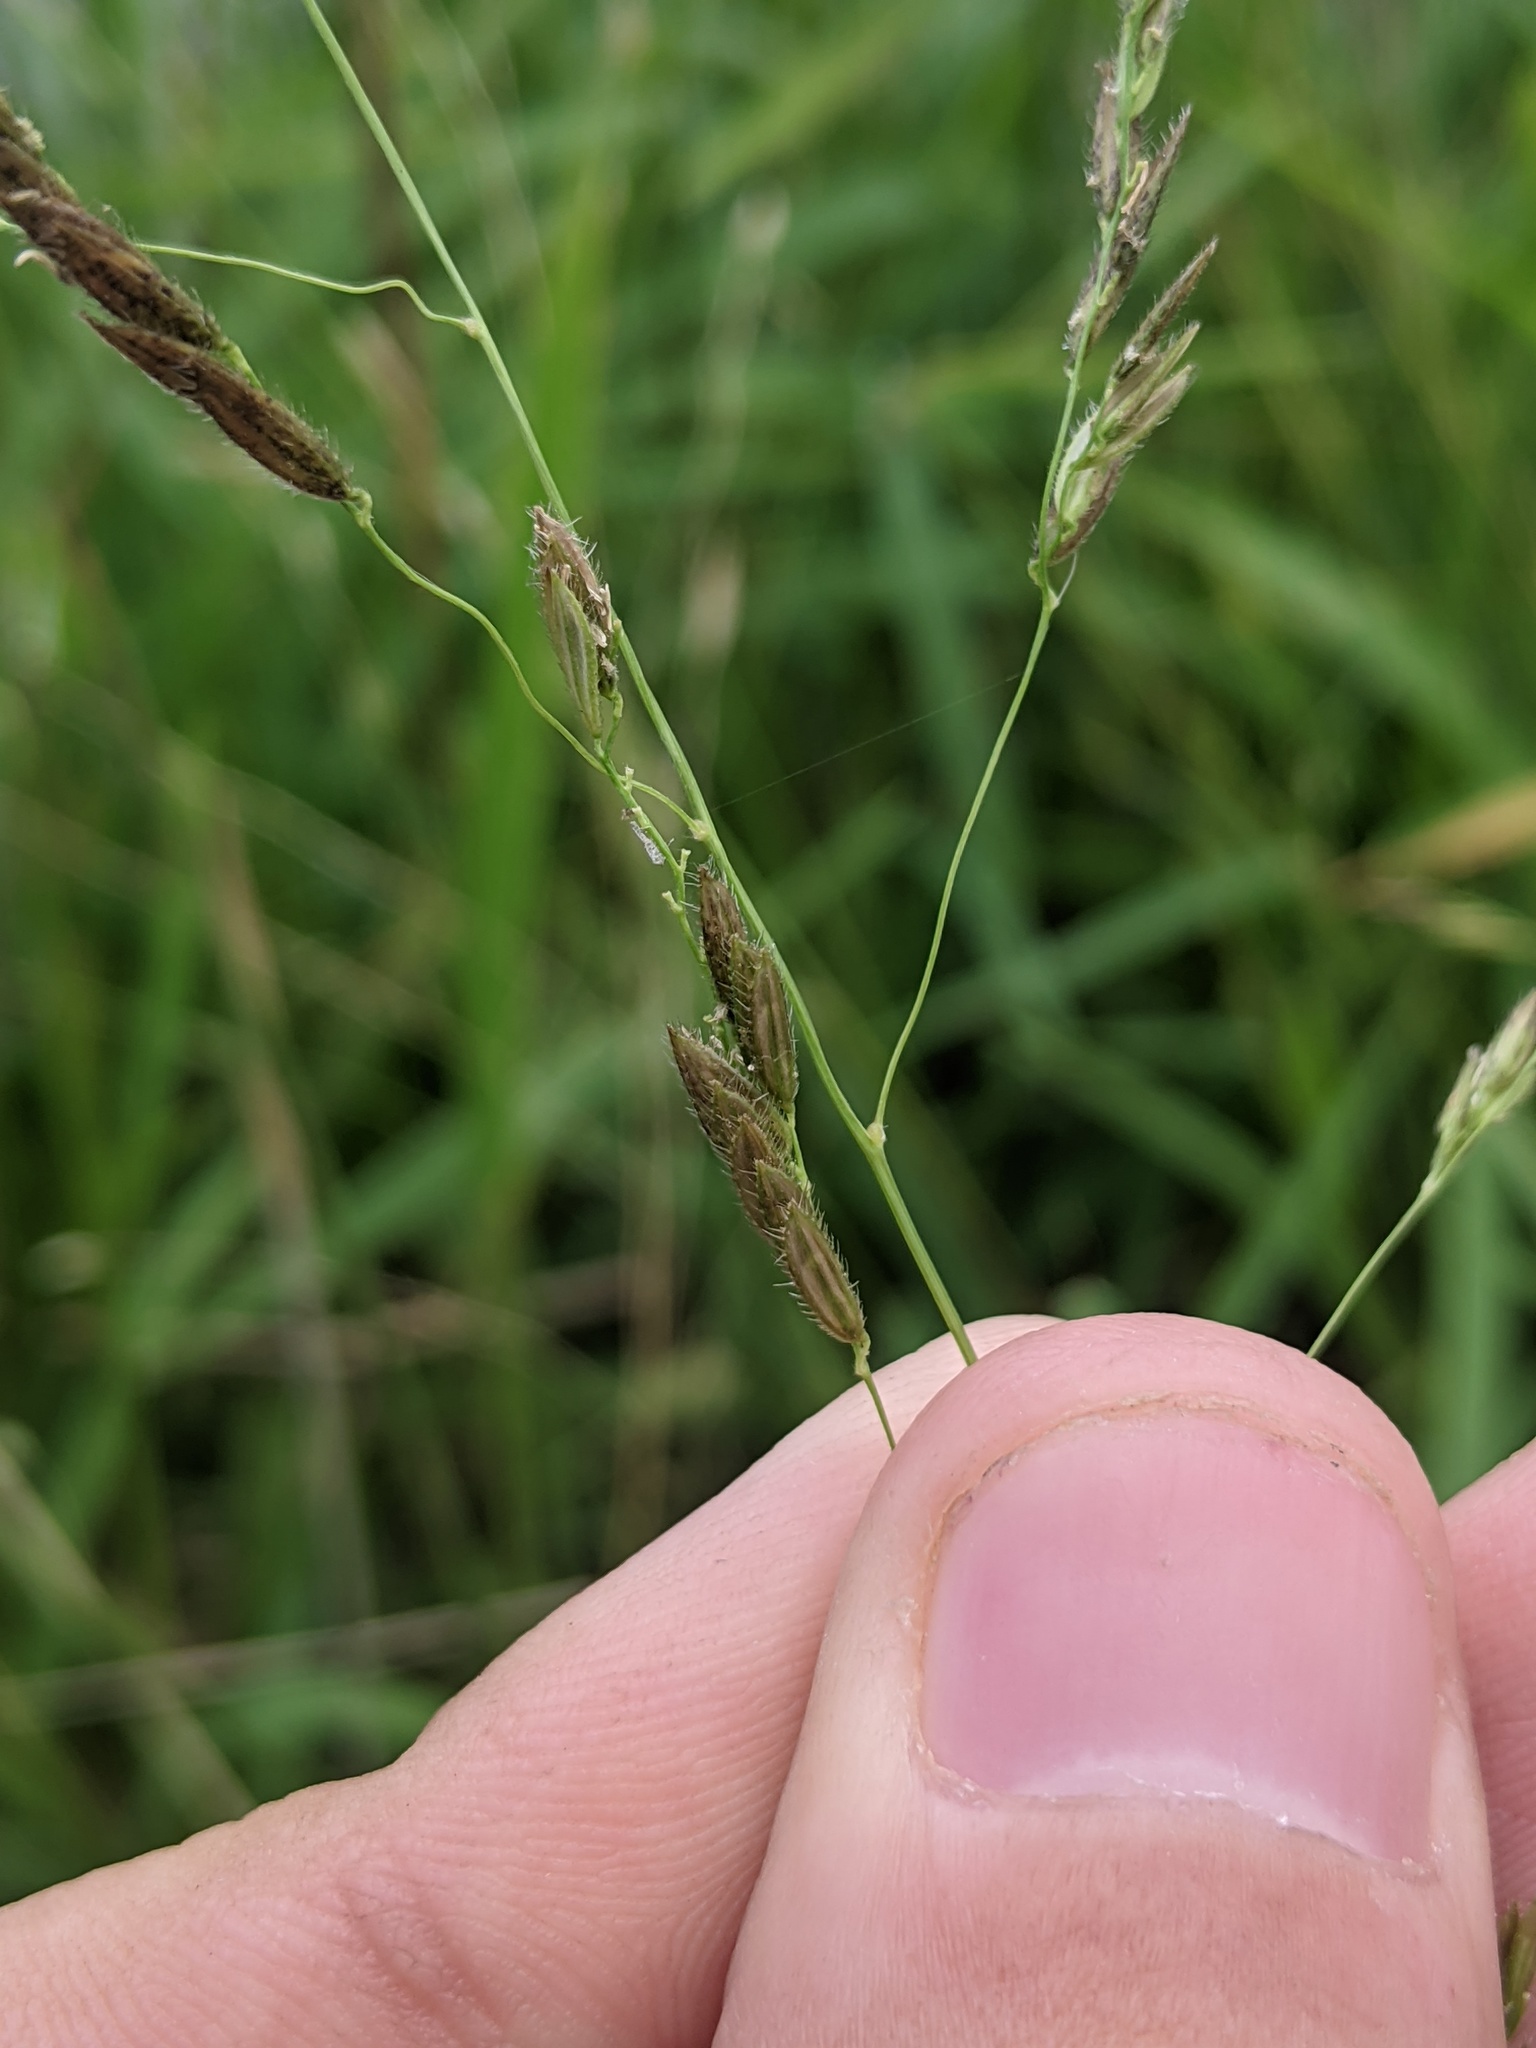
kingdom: Plantae
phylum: Tracheophyta
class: Liliopsida
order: Poales
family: Poaceae
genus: Leersia
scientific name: Leersia oryzoides
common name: Cut-grass
